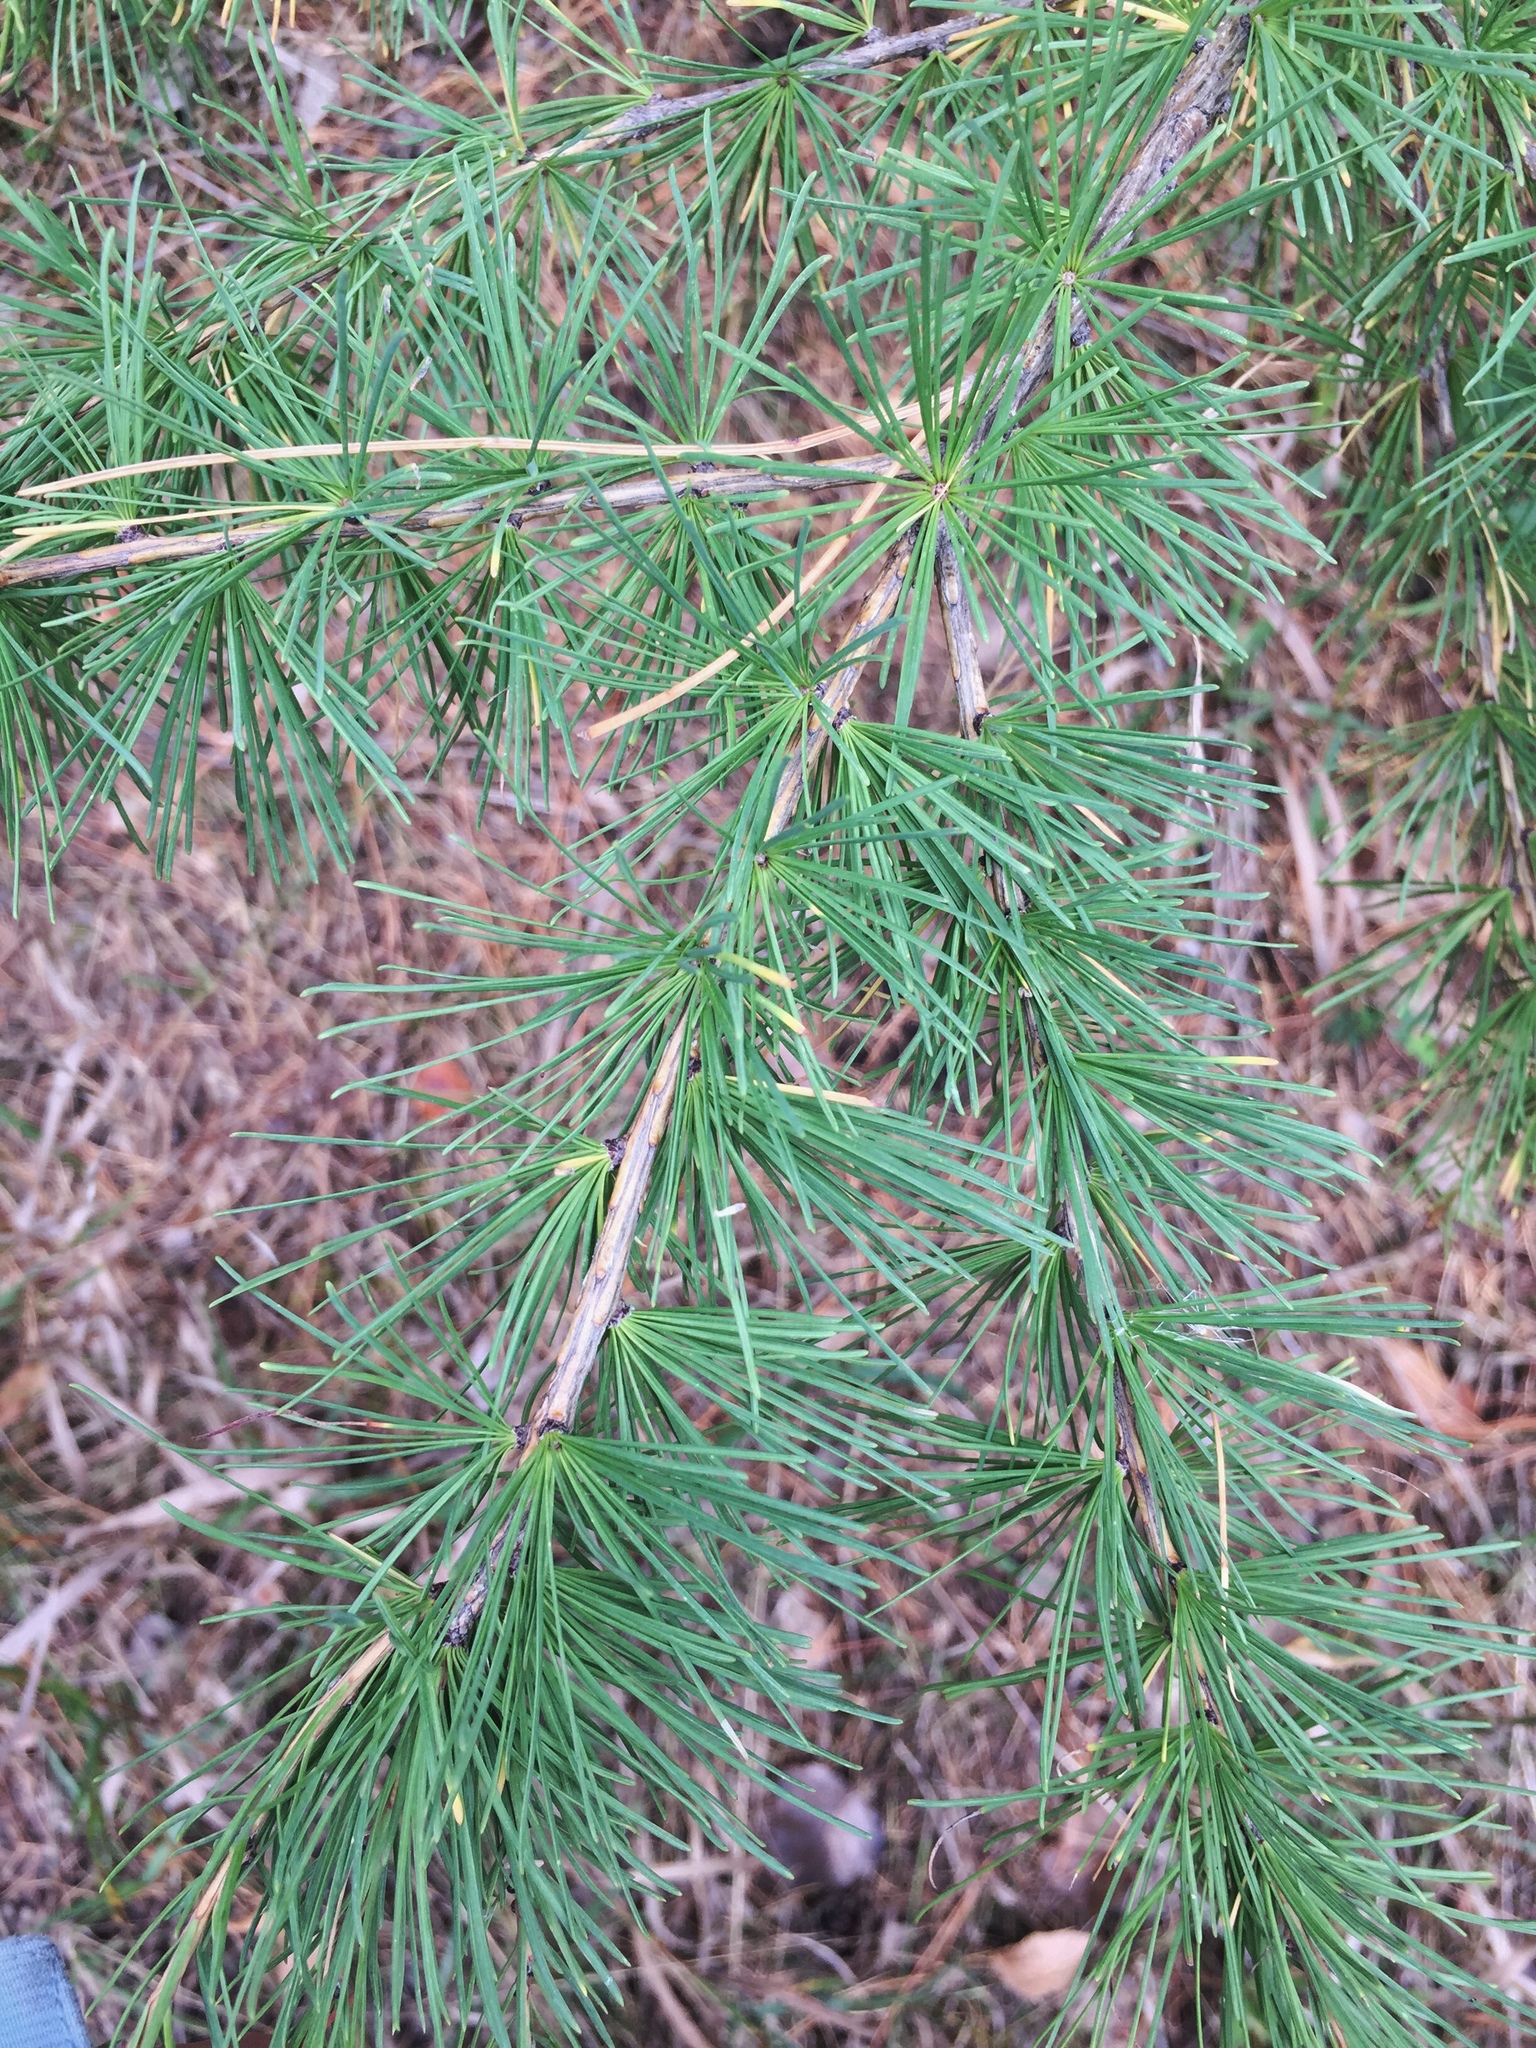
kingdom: Plantae
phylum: Tracheophyta
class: Pinopsida
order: Pinales
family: Pinaceae
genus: Larix
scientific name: Larix laricina
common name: American larch
